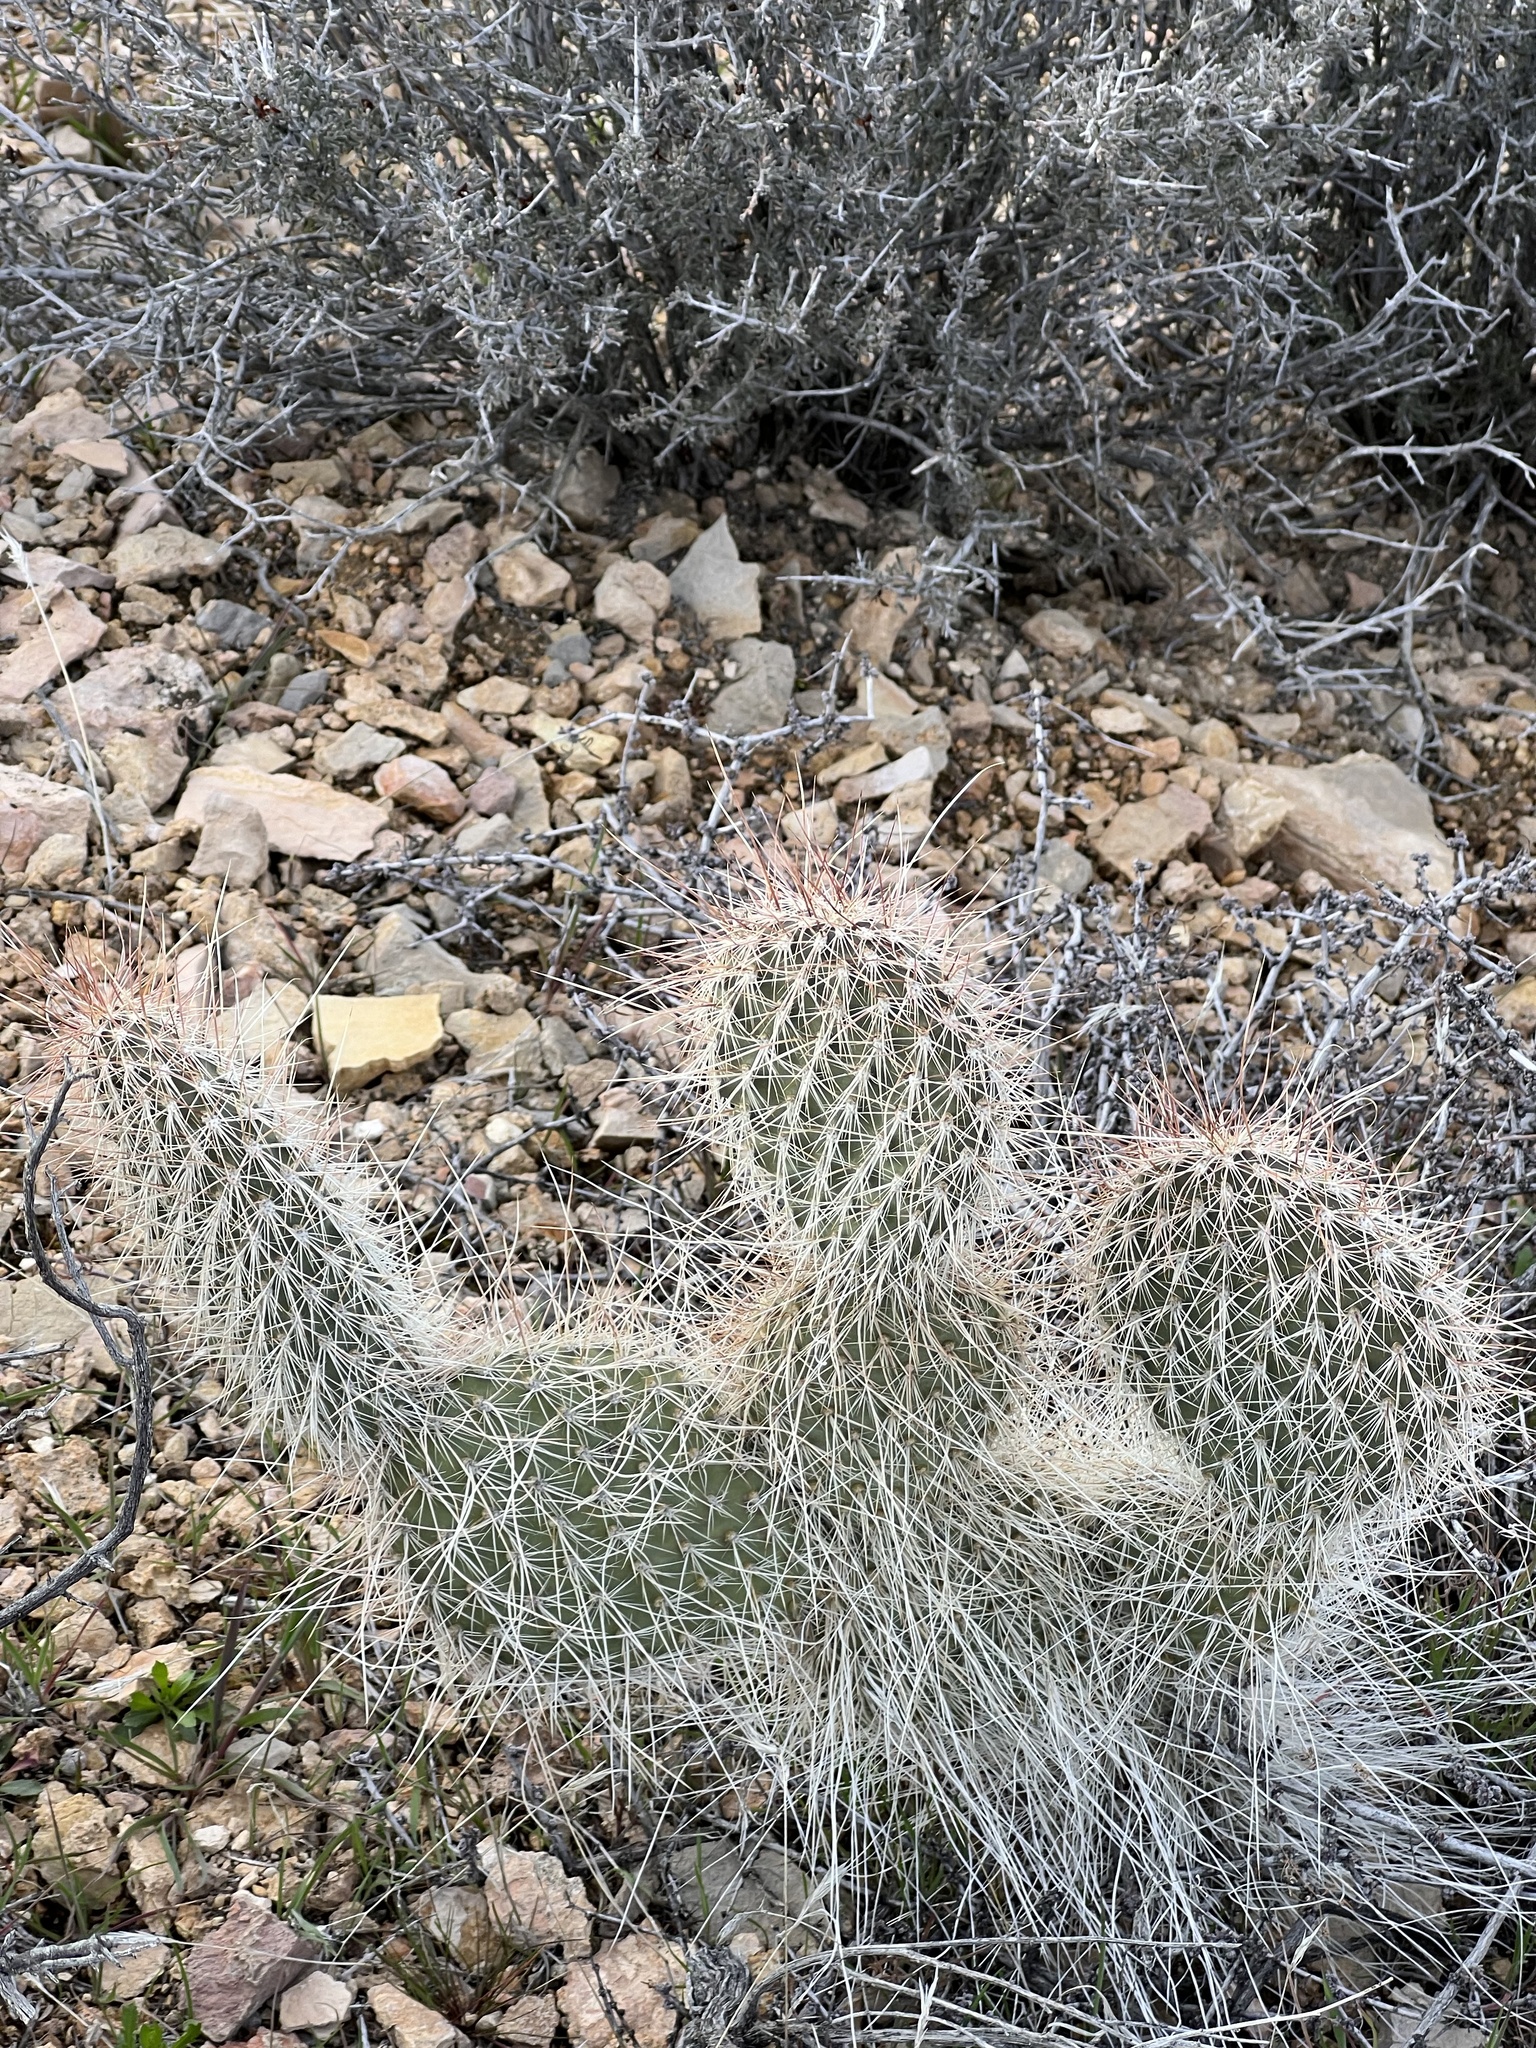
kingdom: Plantae
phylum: Tracheophyta
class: Magnoliopsida
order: Caryophyllales
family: Cactaceae
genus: Opuntia
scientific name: Opuntia polyacantha
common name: Plains prickly-pear
